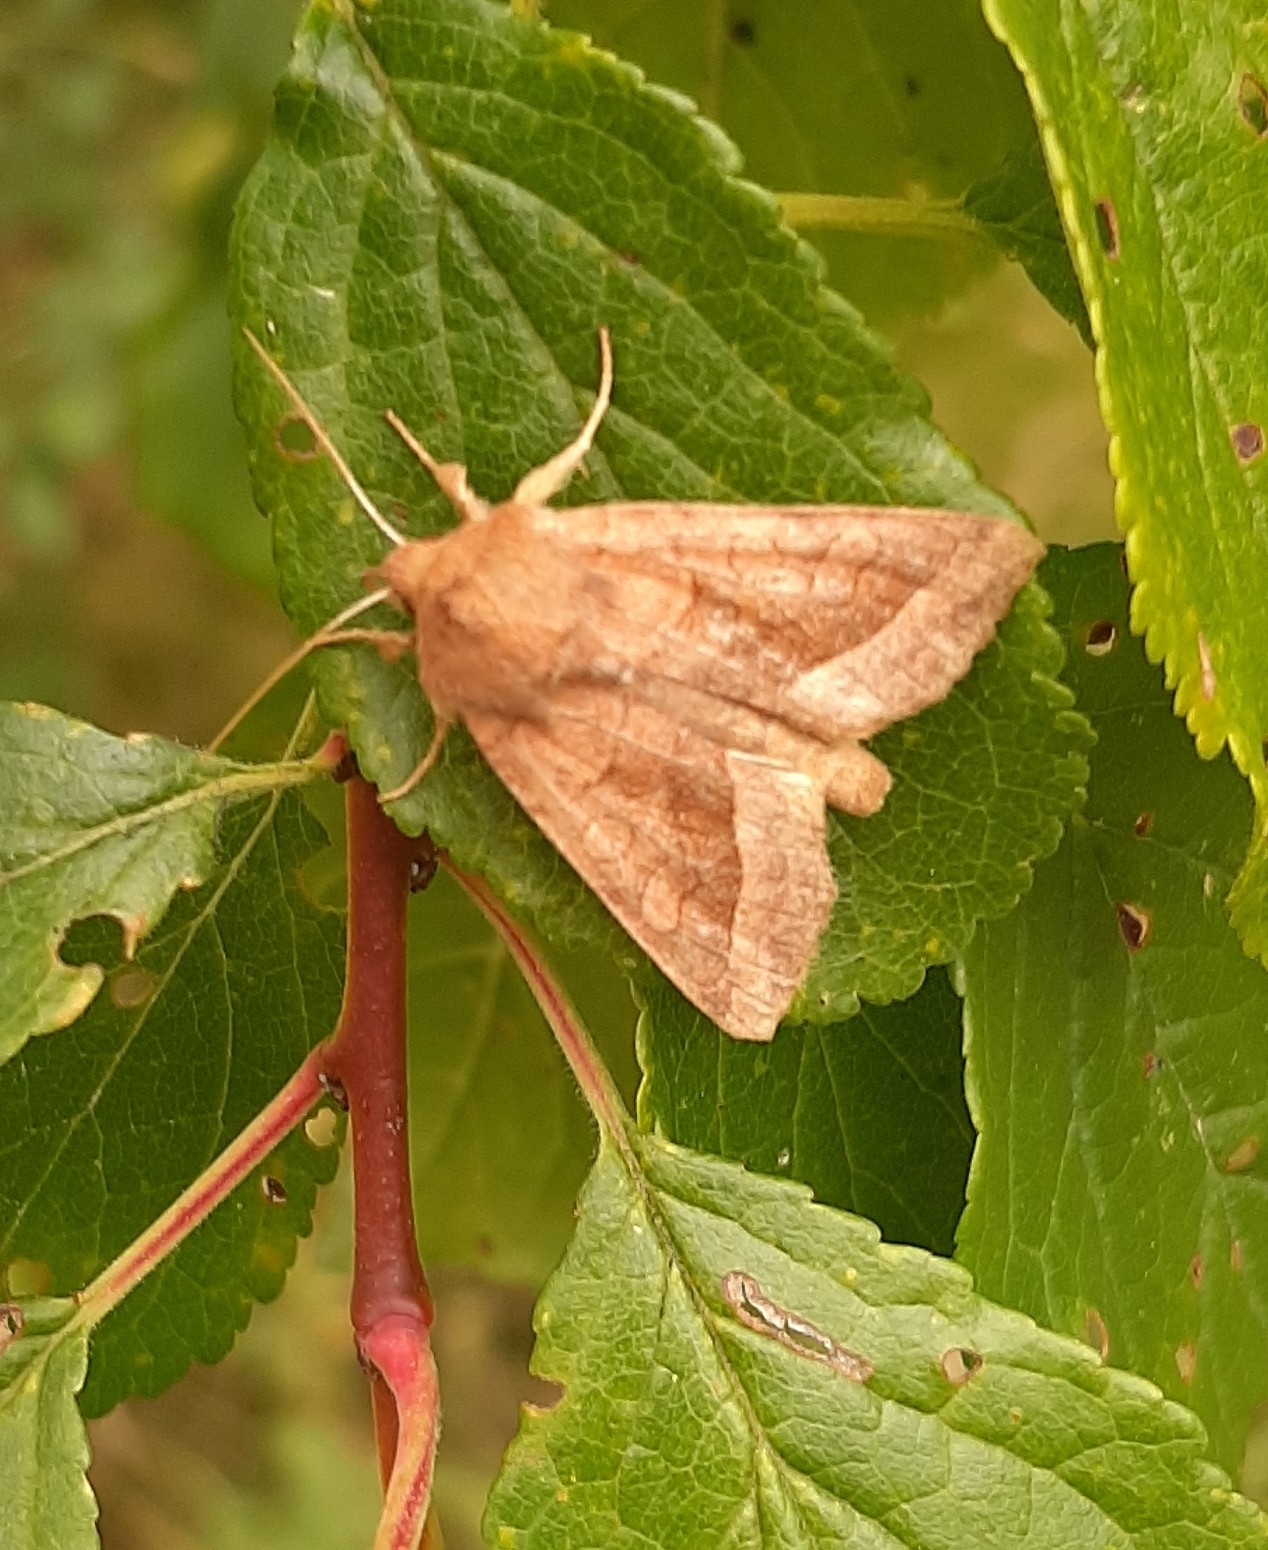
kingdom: Animalia
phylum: Arthropoda
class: Insecta
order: Lepidoptera
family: Noctuidae
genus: Hydraecia
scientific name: Hydraecia micacea
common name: Rosy rustic
